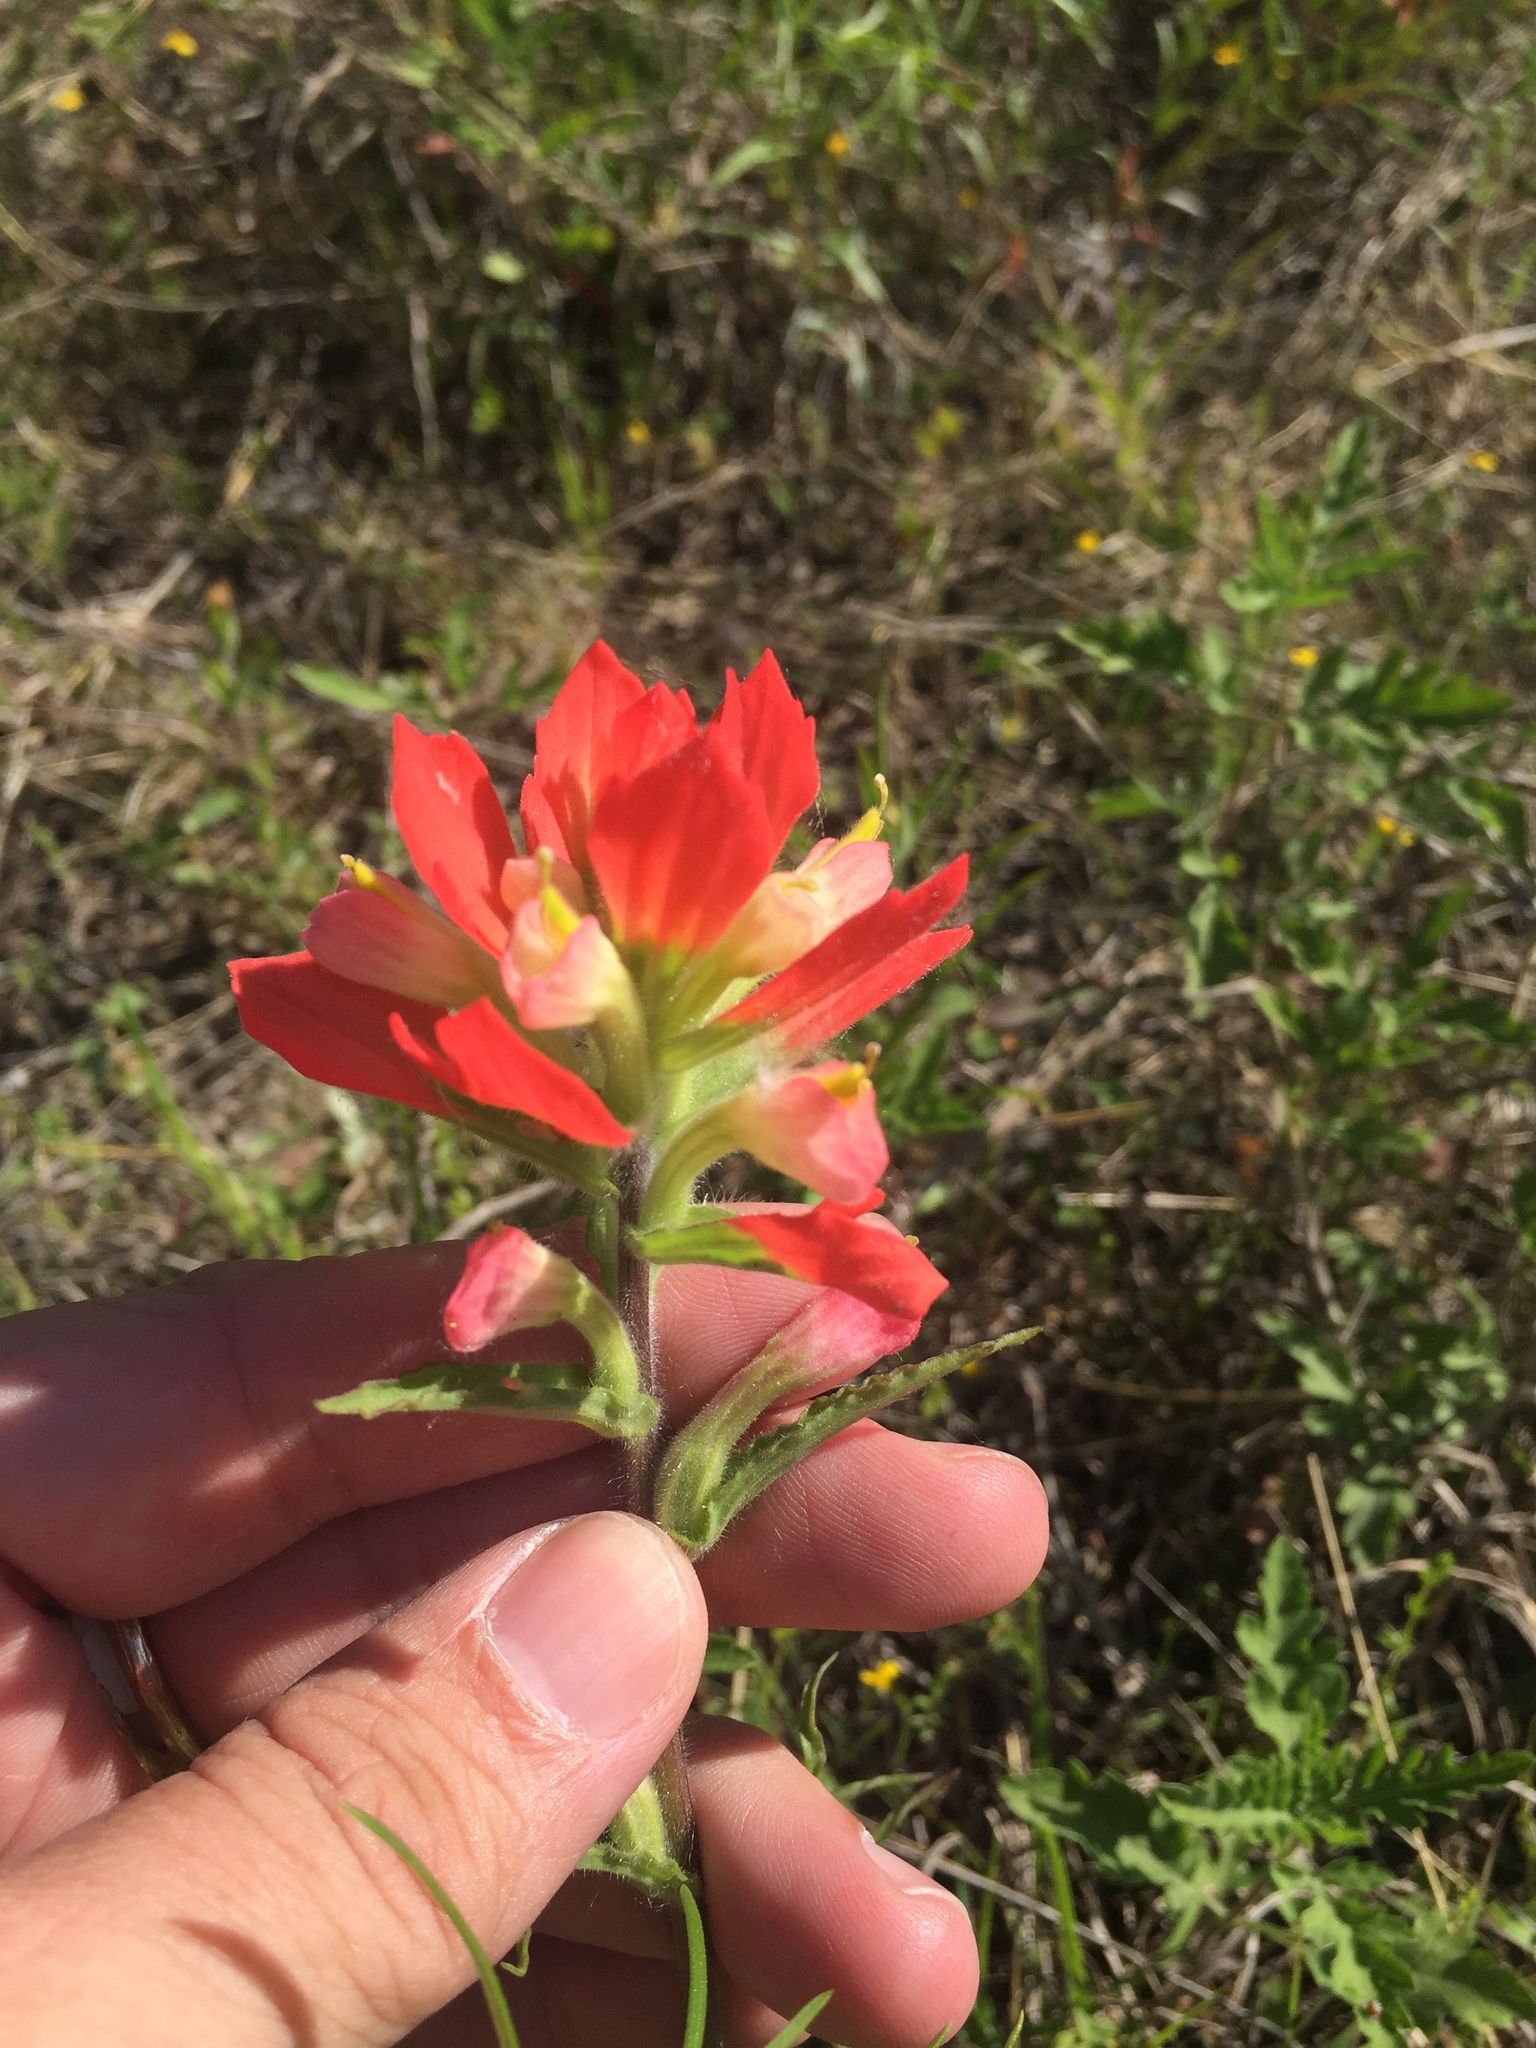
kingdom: Plantae
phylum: Tracheophyta
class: Magnoliopsida
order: Lamiales
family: Orobanchaceae
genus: Castilleja
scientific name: Castilleja indivisa
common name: Texas paintbrush
